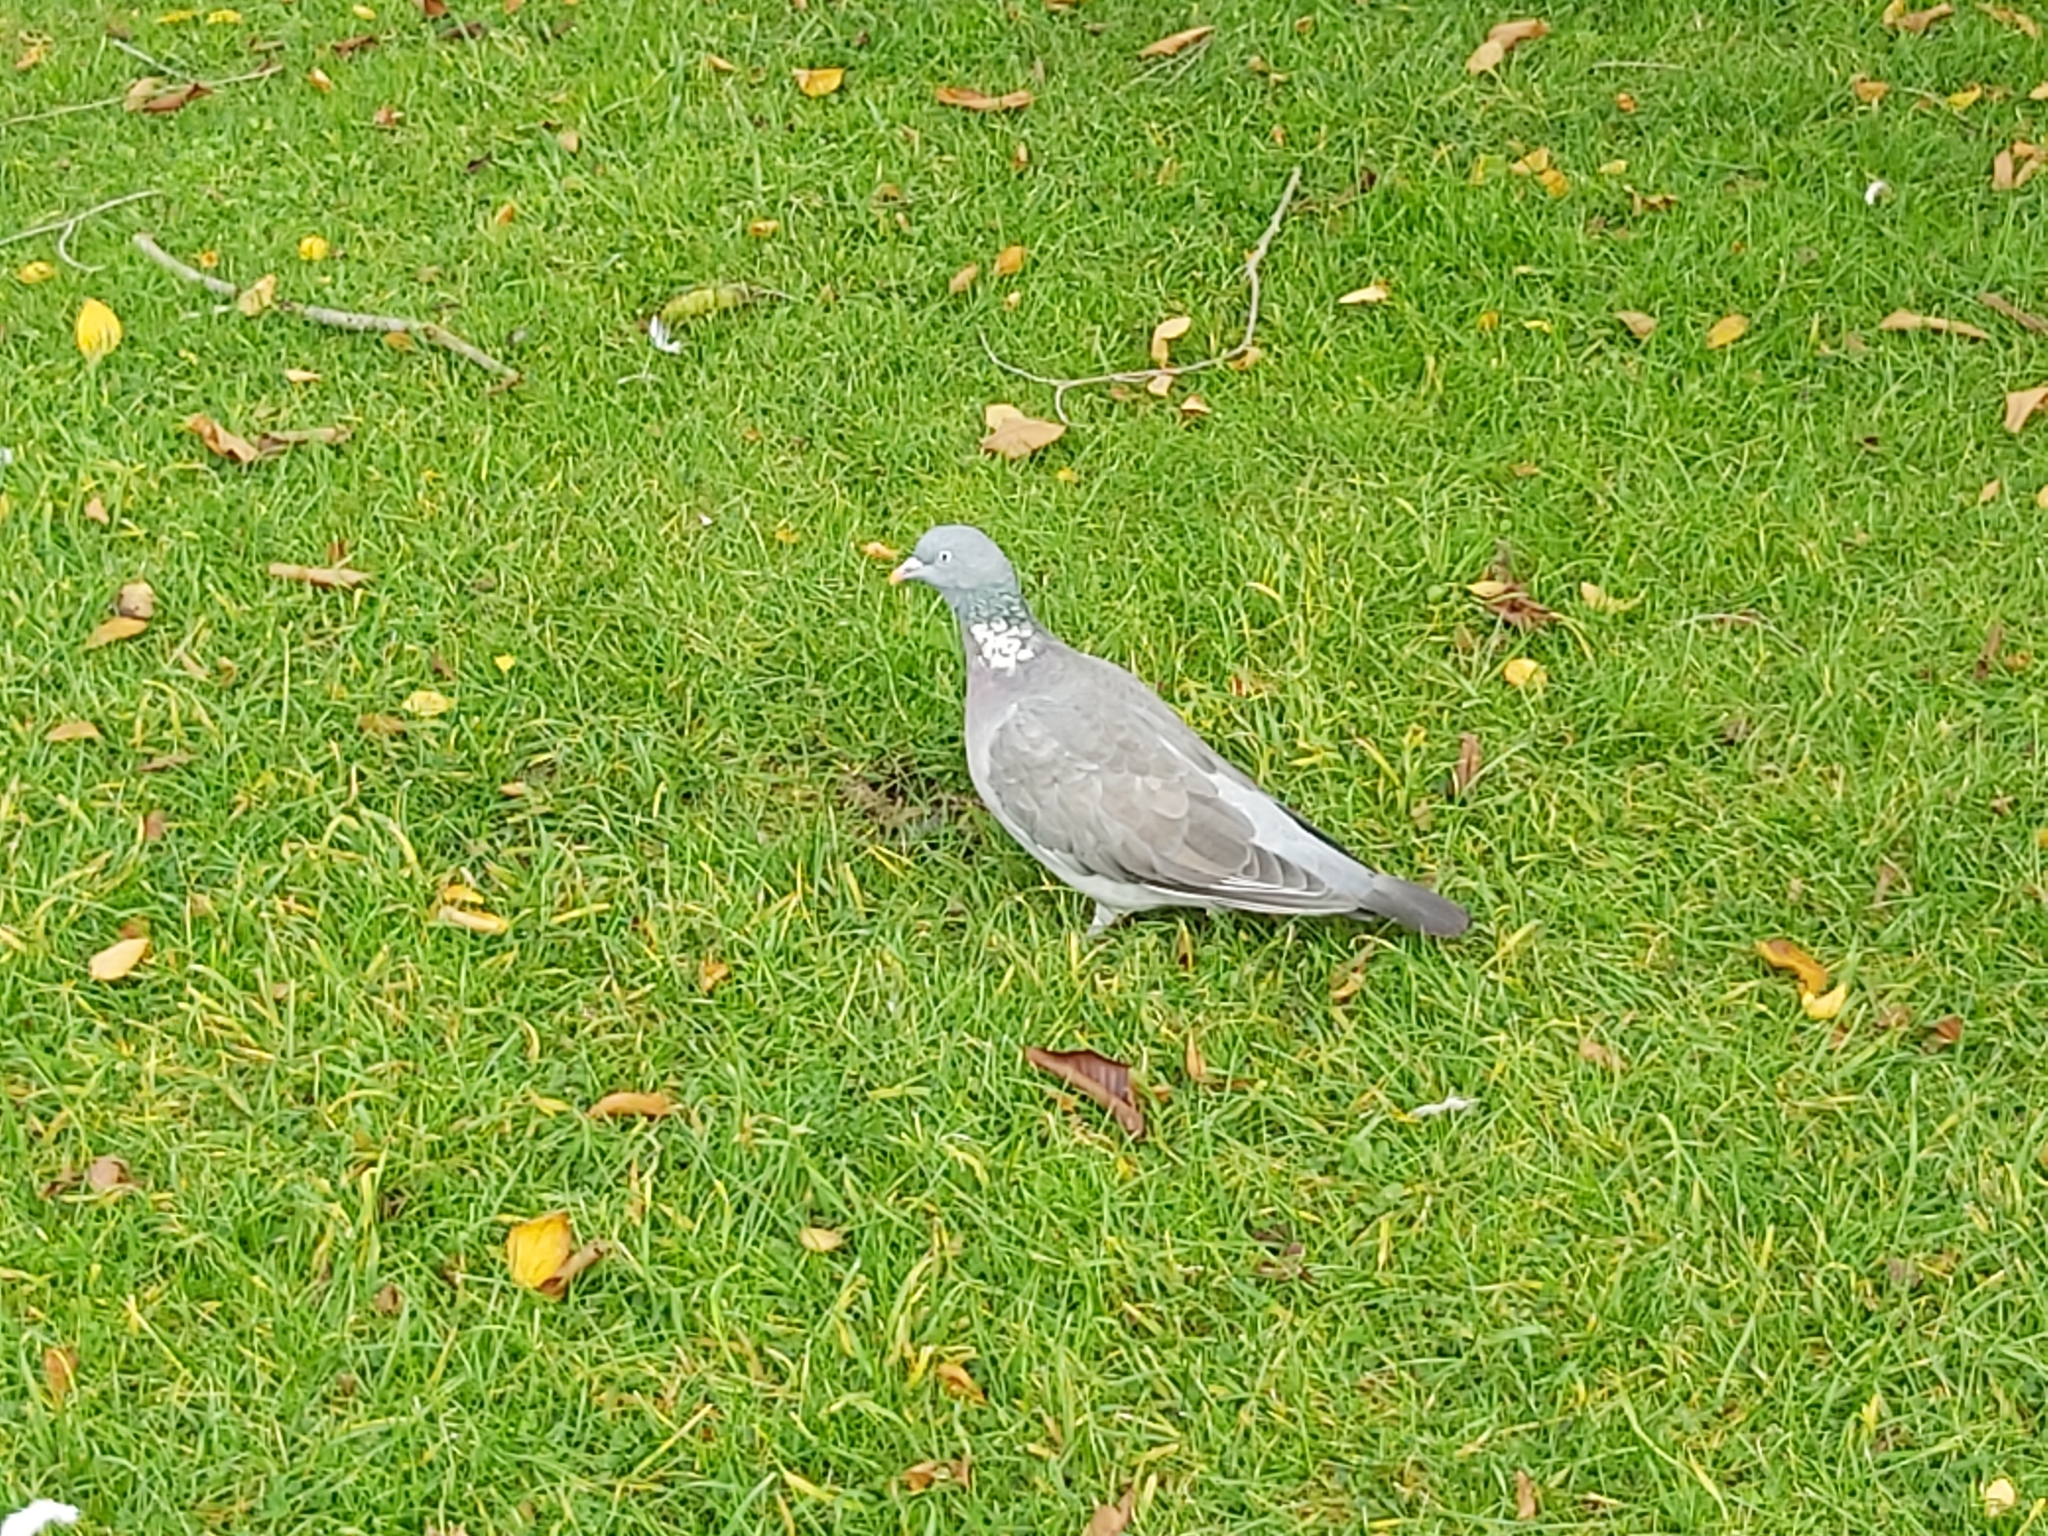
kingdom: Animalia
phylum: Chordata
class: Aves
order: Columbiformes
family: Columbidae
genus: Columba
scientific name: Columba palumbus
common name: Common wood pigeon
